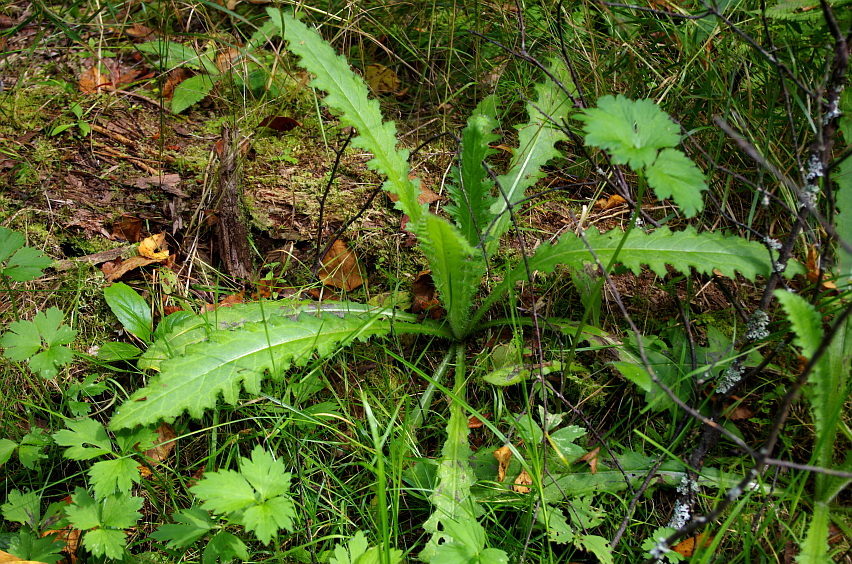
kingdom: Plantae
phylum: Tracheophyta
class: Magnoliopsida
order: Asterales
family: Asteraceae
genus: Cirsium
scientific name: Cirsium palustre
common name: Marsh thistle
